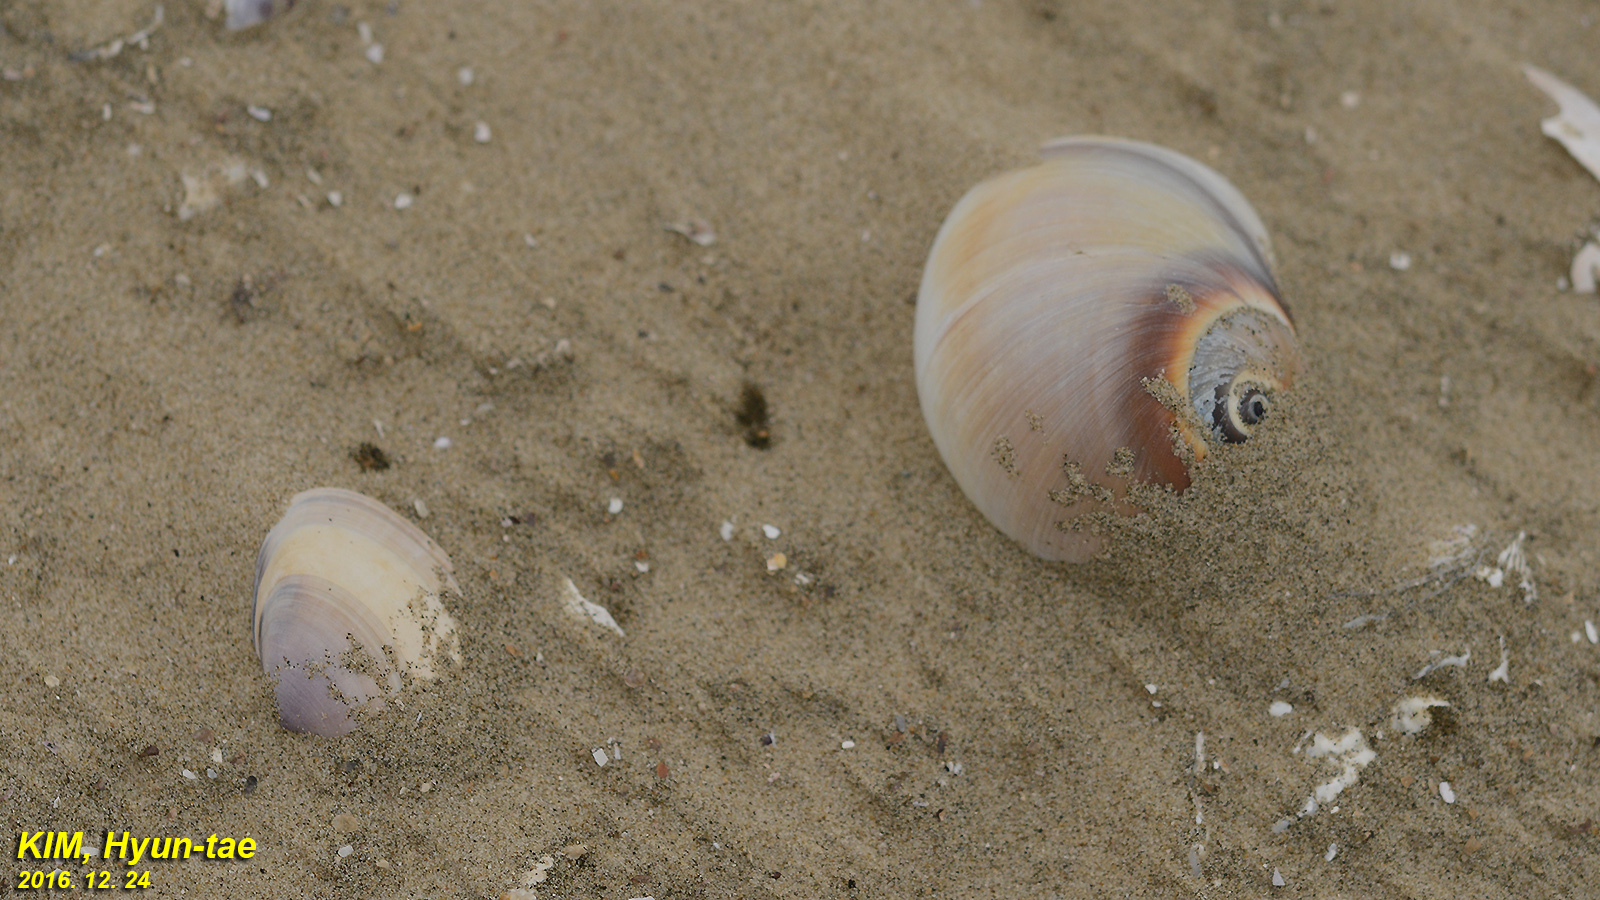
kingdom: Animalia
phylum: Mollusca
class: Gastropoda
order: Littorinimorpha
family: Naticidae
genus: Neverita
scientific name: Neverita didyma
